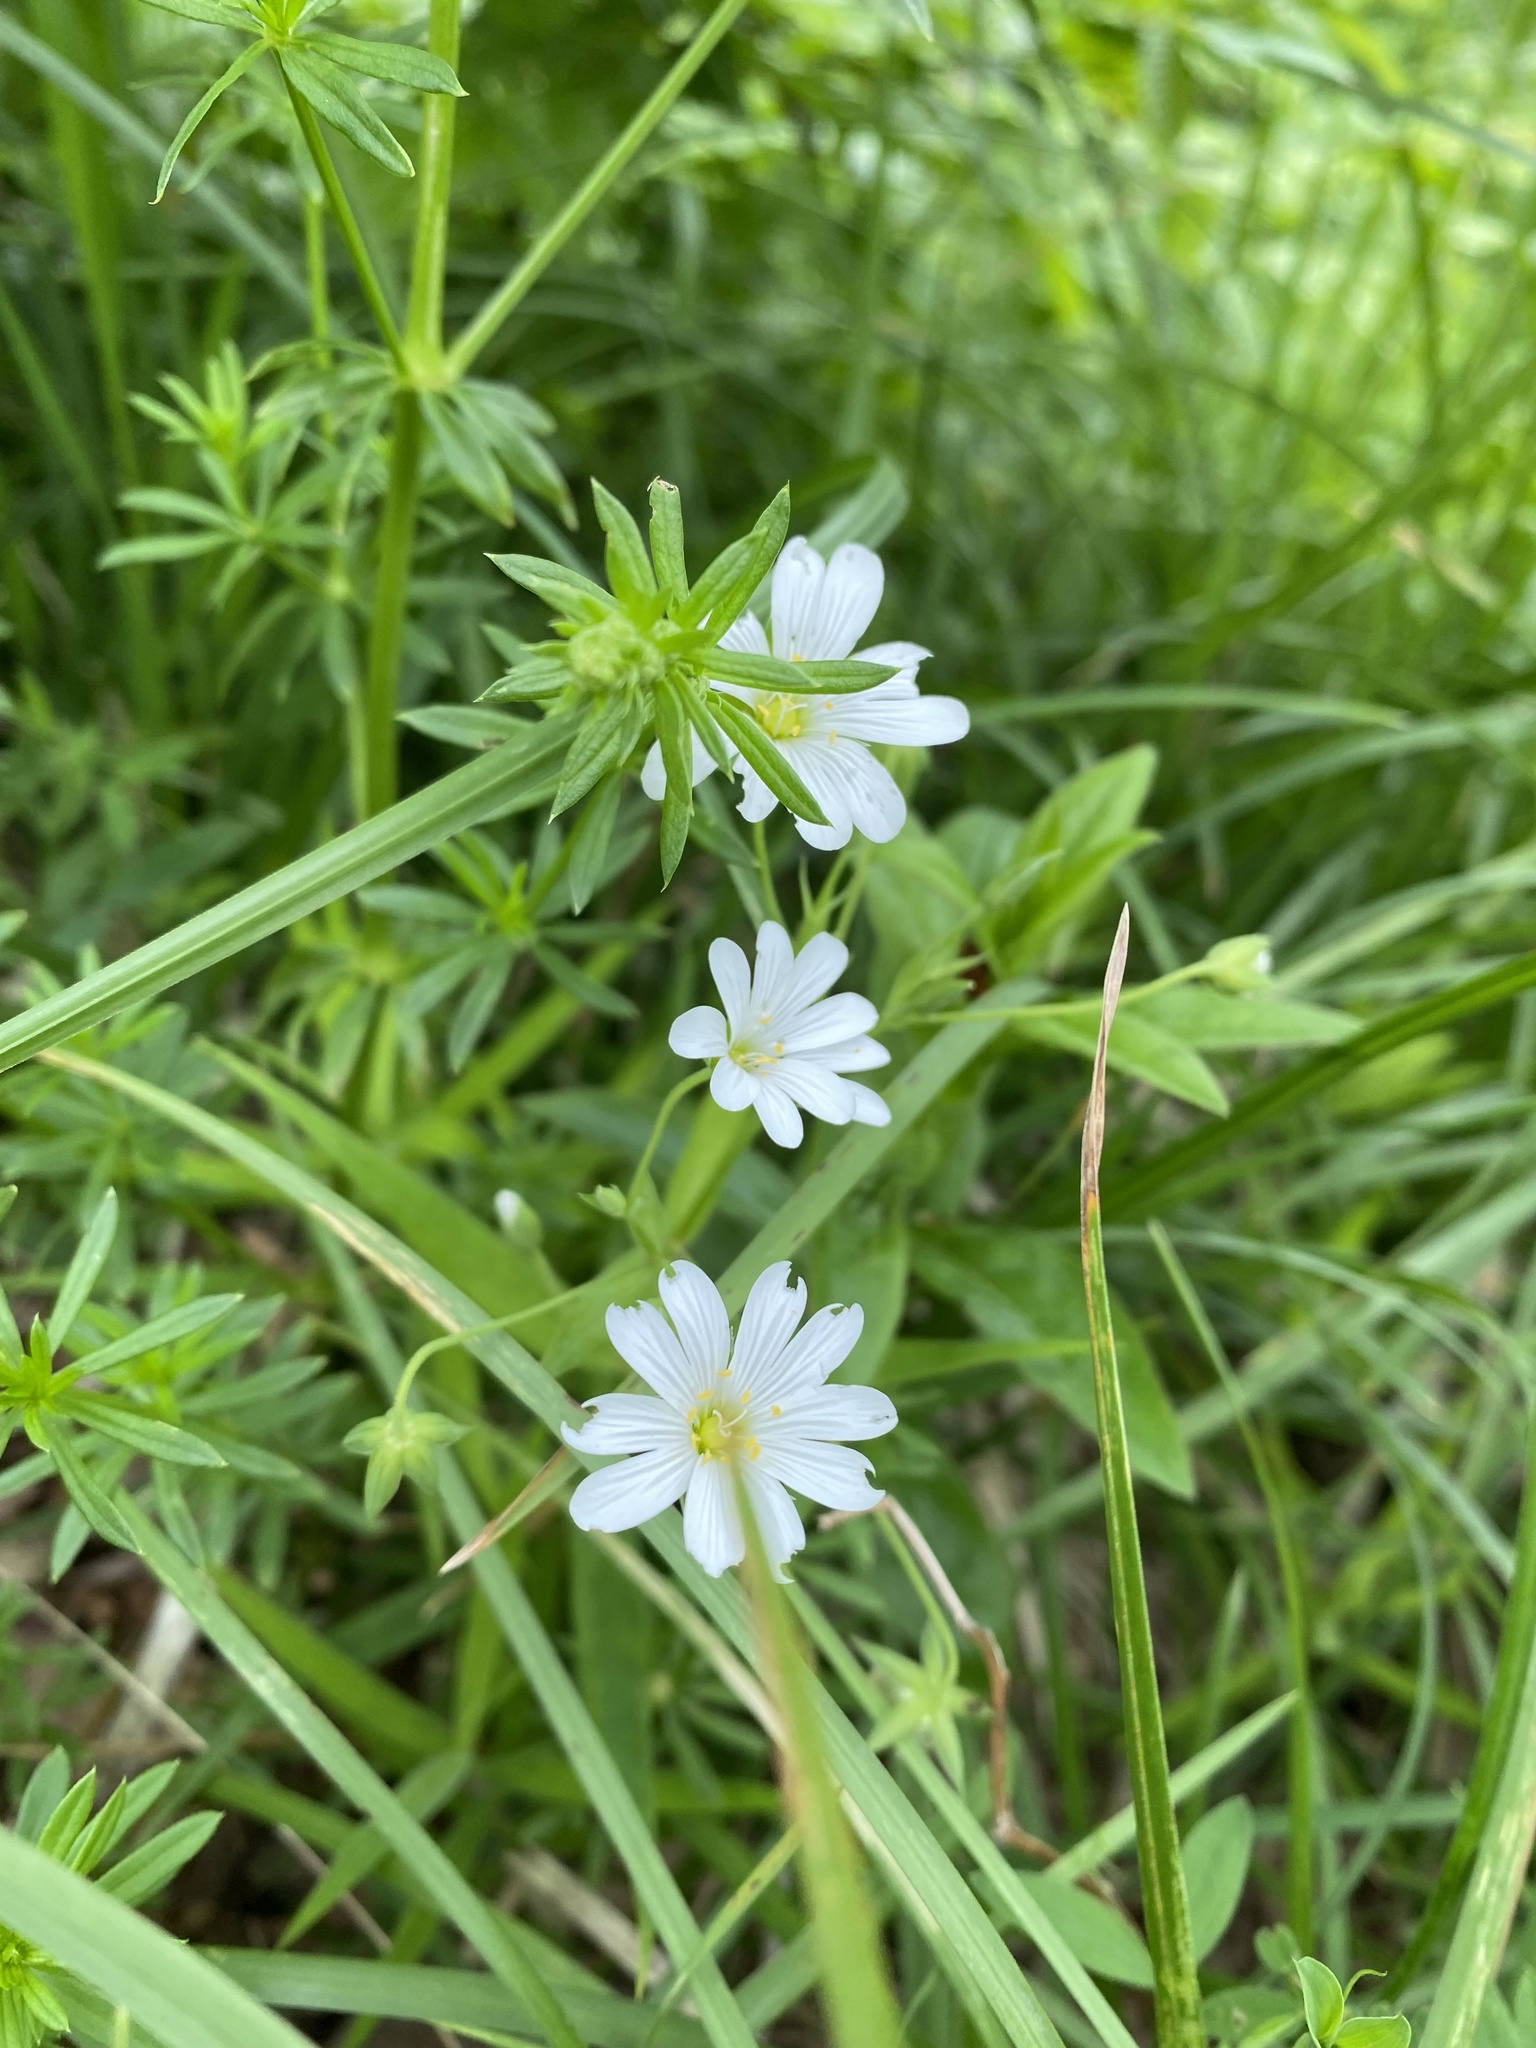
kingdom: Plantae
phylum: Tracheophyta
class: Magnoliopsida
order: Caryophyllales
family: Caryophyllaceae
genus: Rabelera
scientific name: Rabelera holostea
